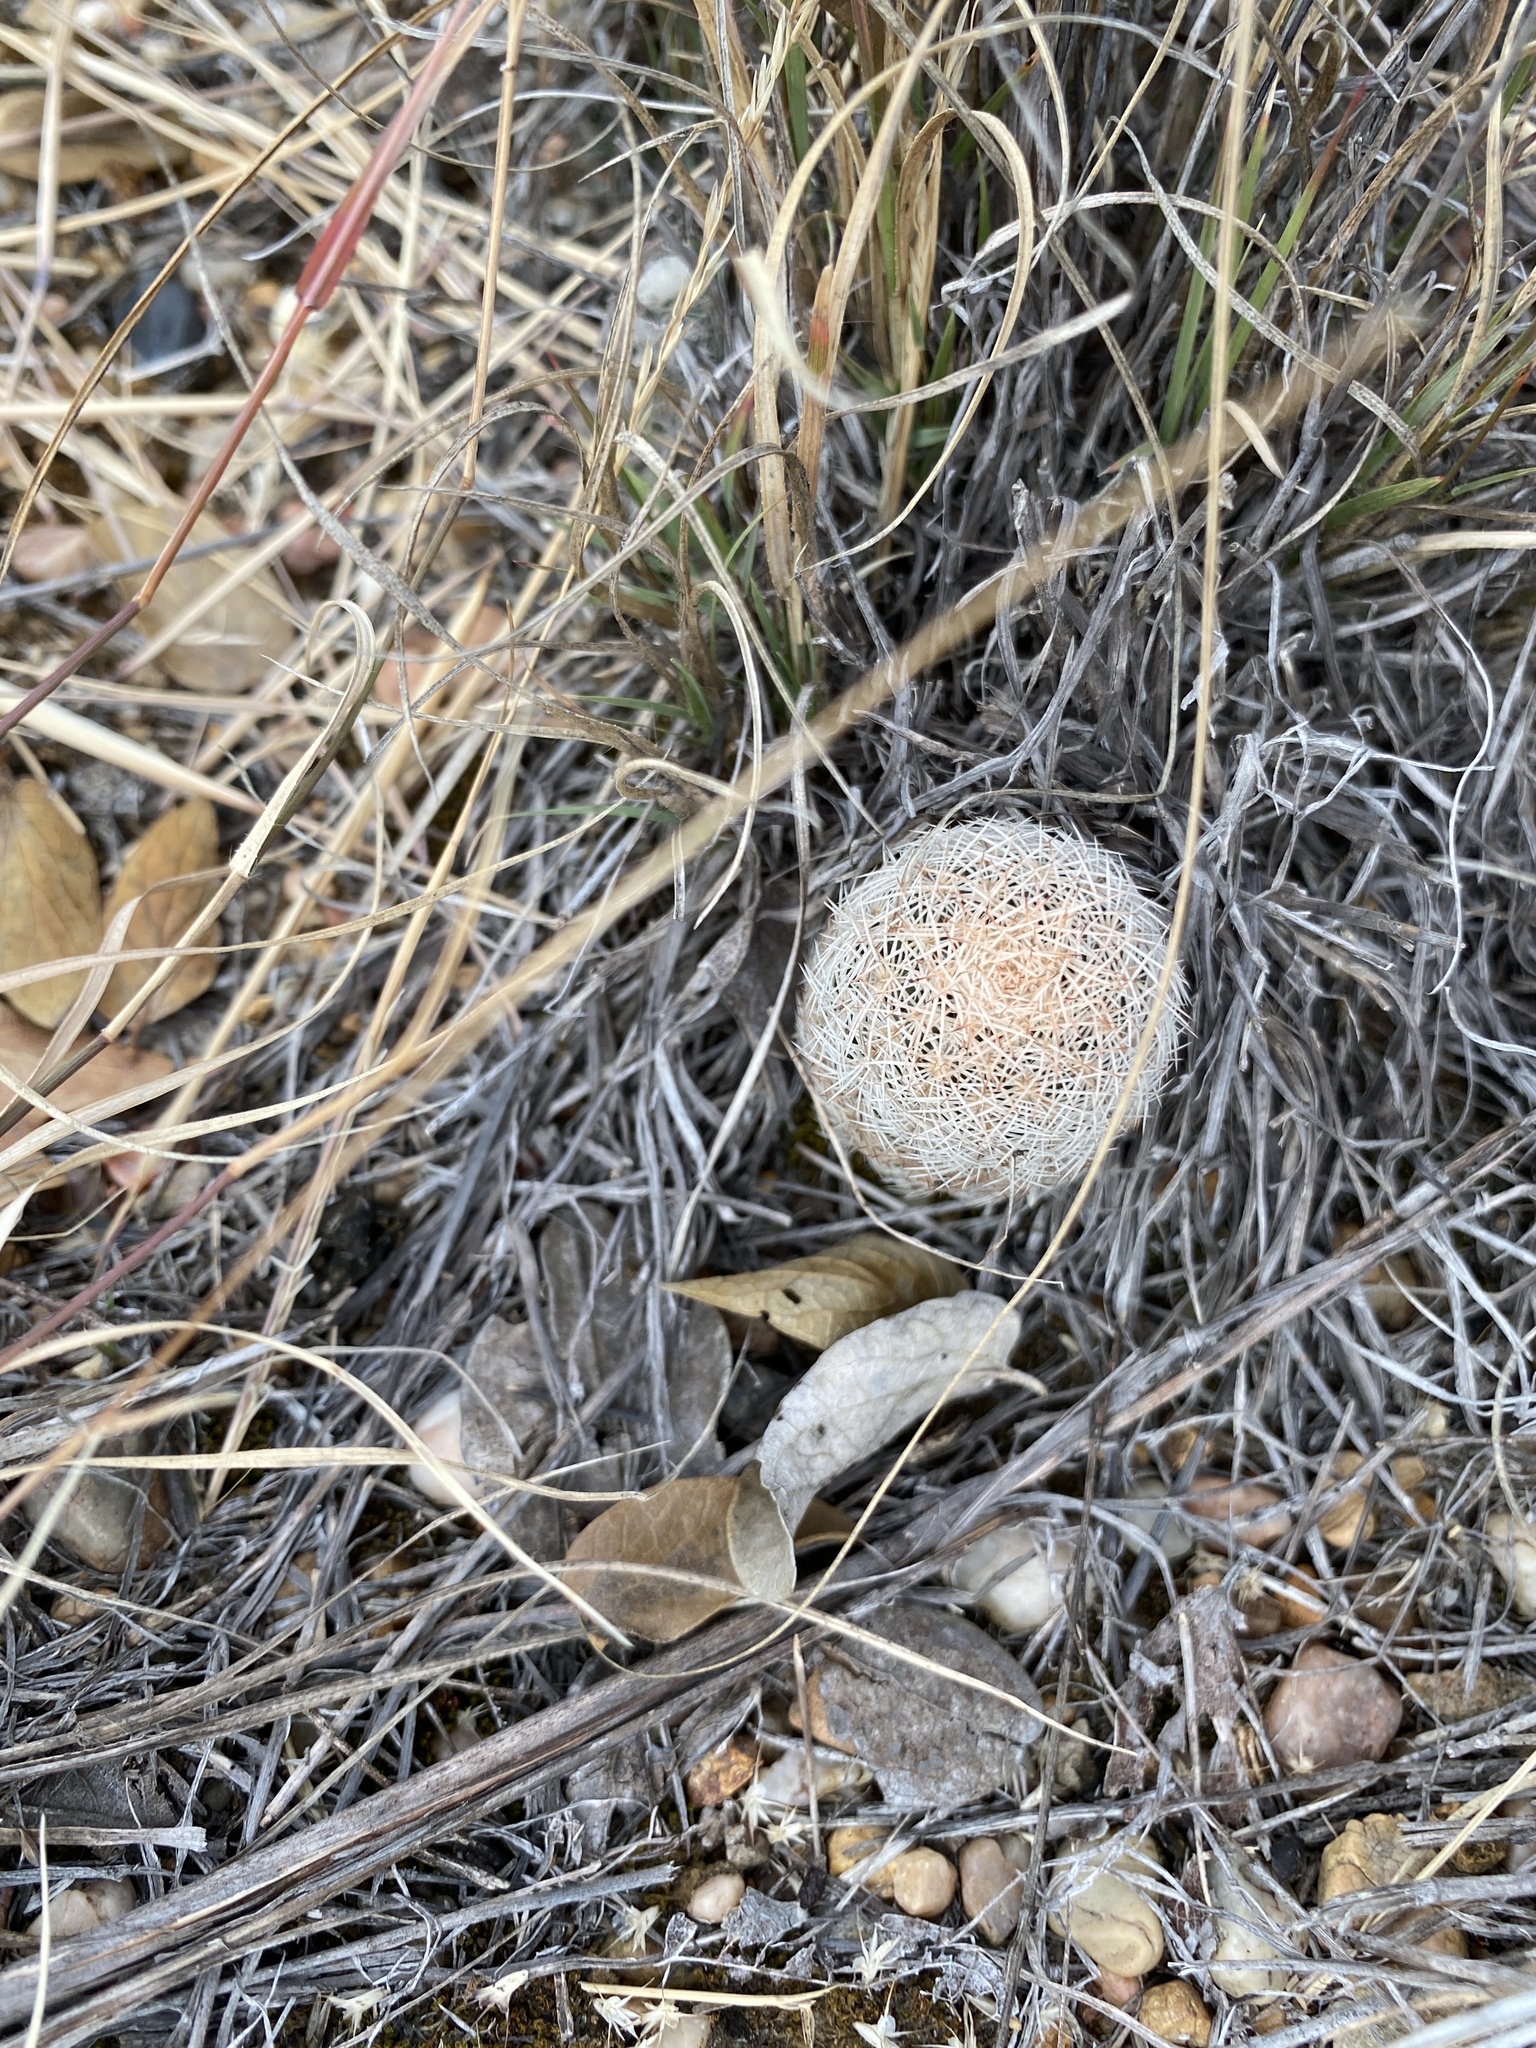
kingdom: Plantae
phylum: Tracheophyta
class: Magnoliopsida
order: Caryophyllales
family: Cactaceae
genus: Echinocereus
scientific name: Echinocereus reichenbachii
